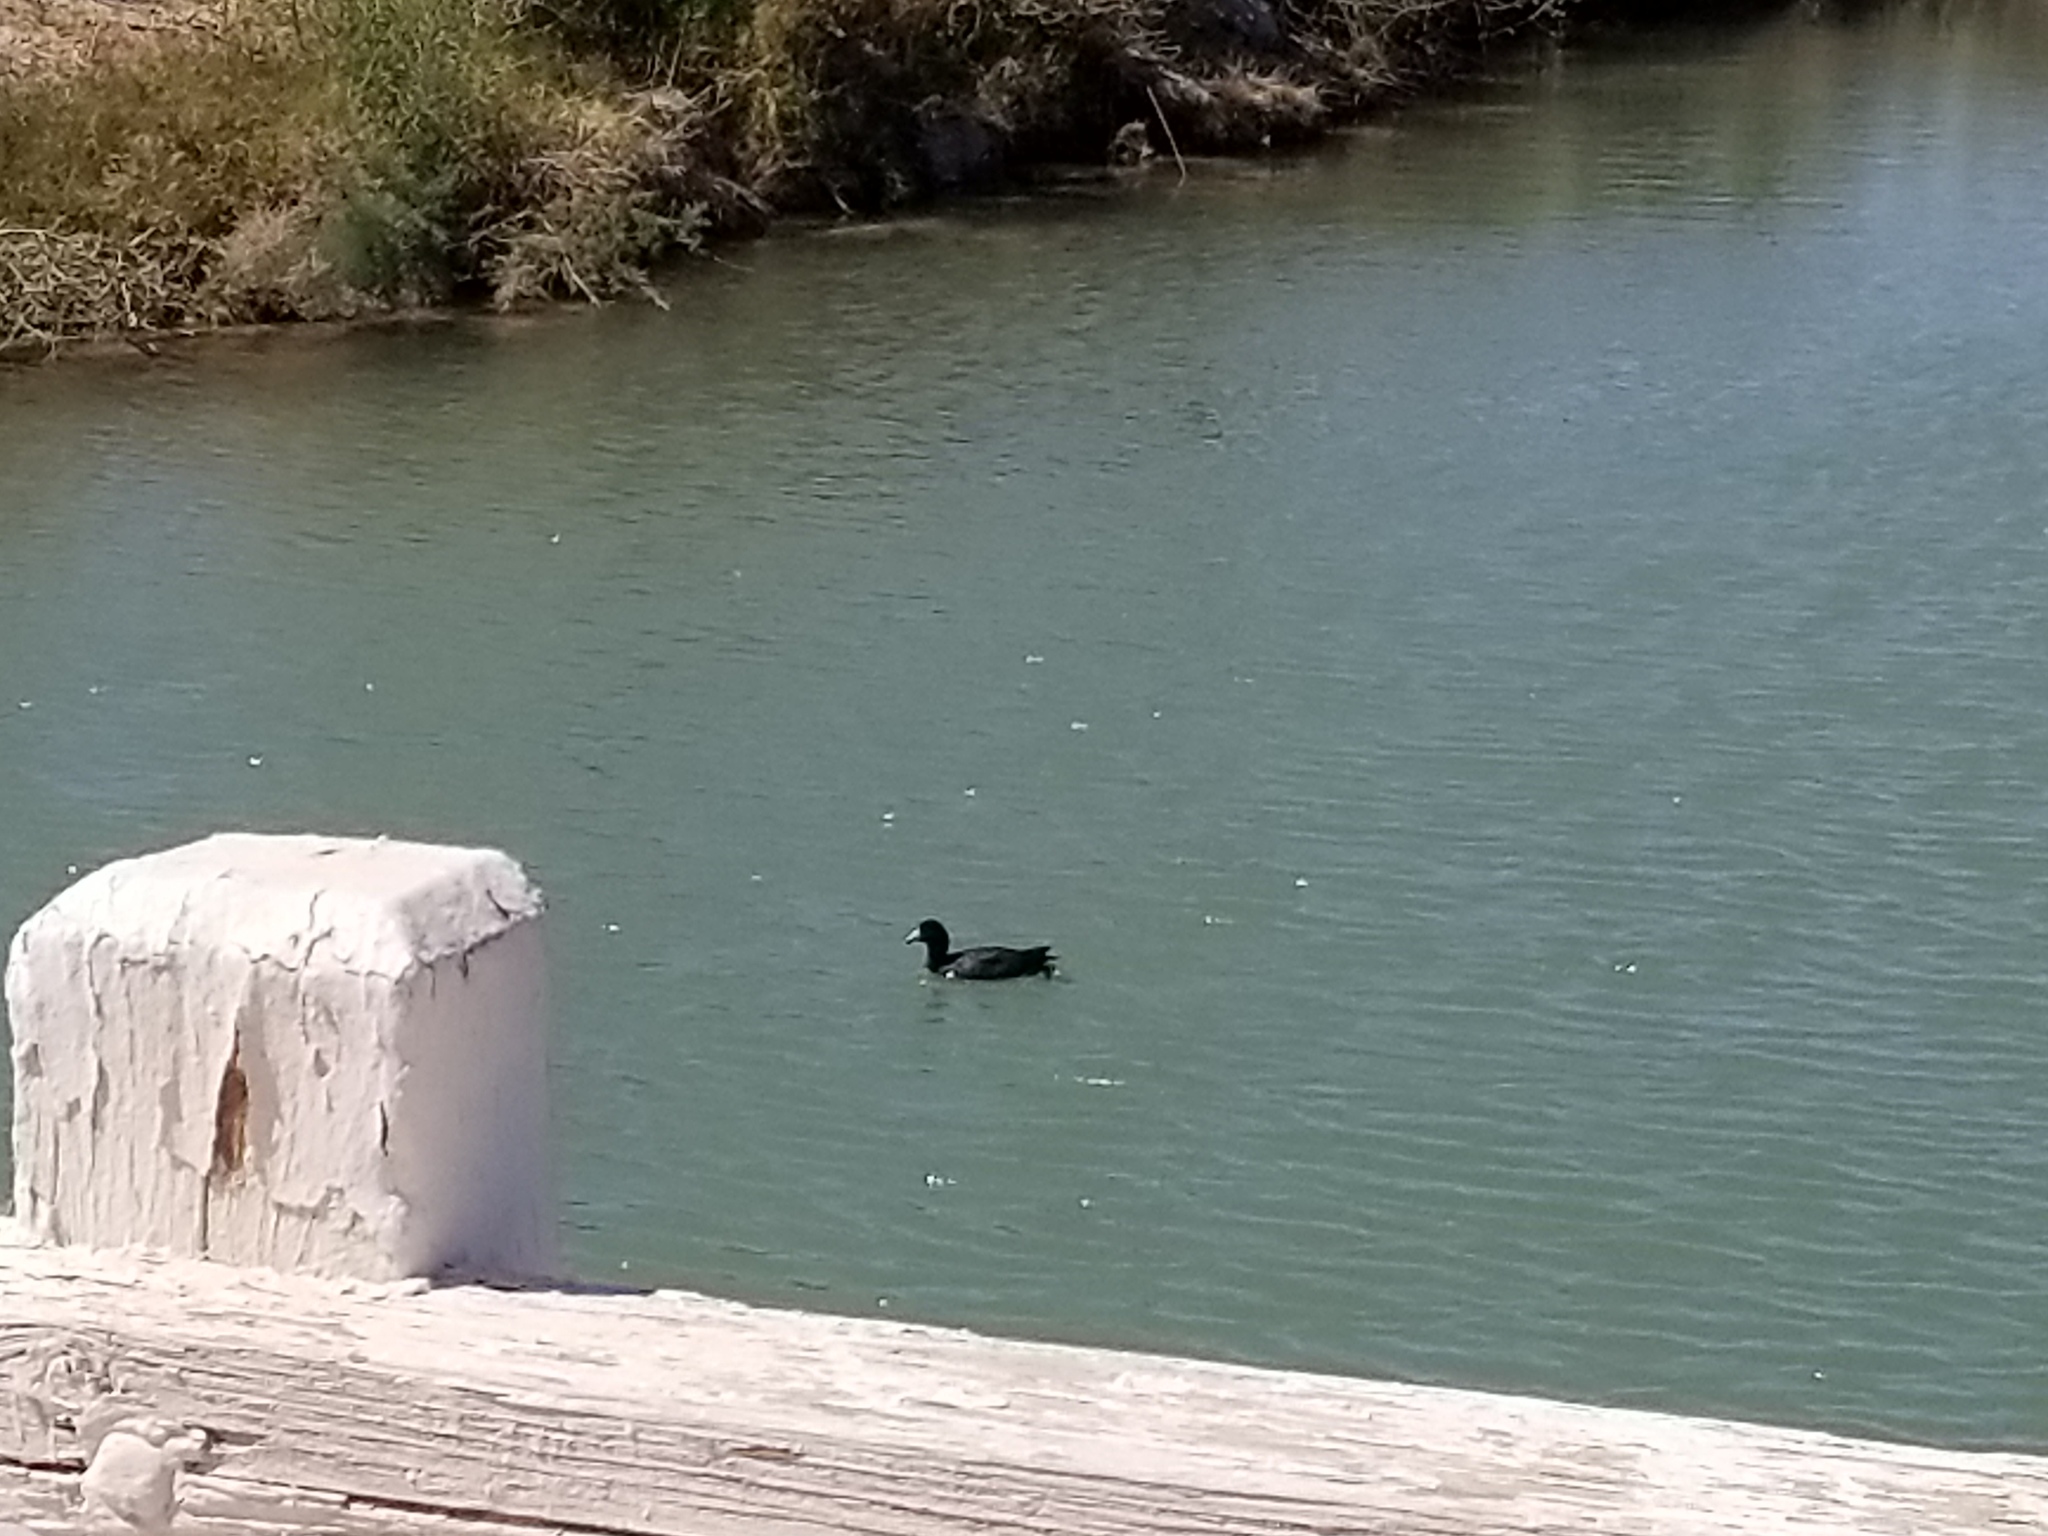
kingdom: Animalia
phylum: Chordata
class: Aves
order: Gruiformes
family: Rallidae
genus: Fulica
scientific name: Fulica americana
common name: American coot
